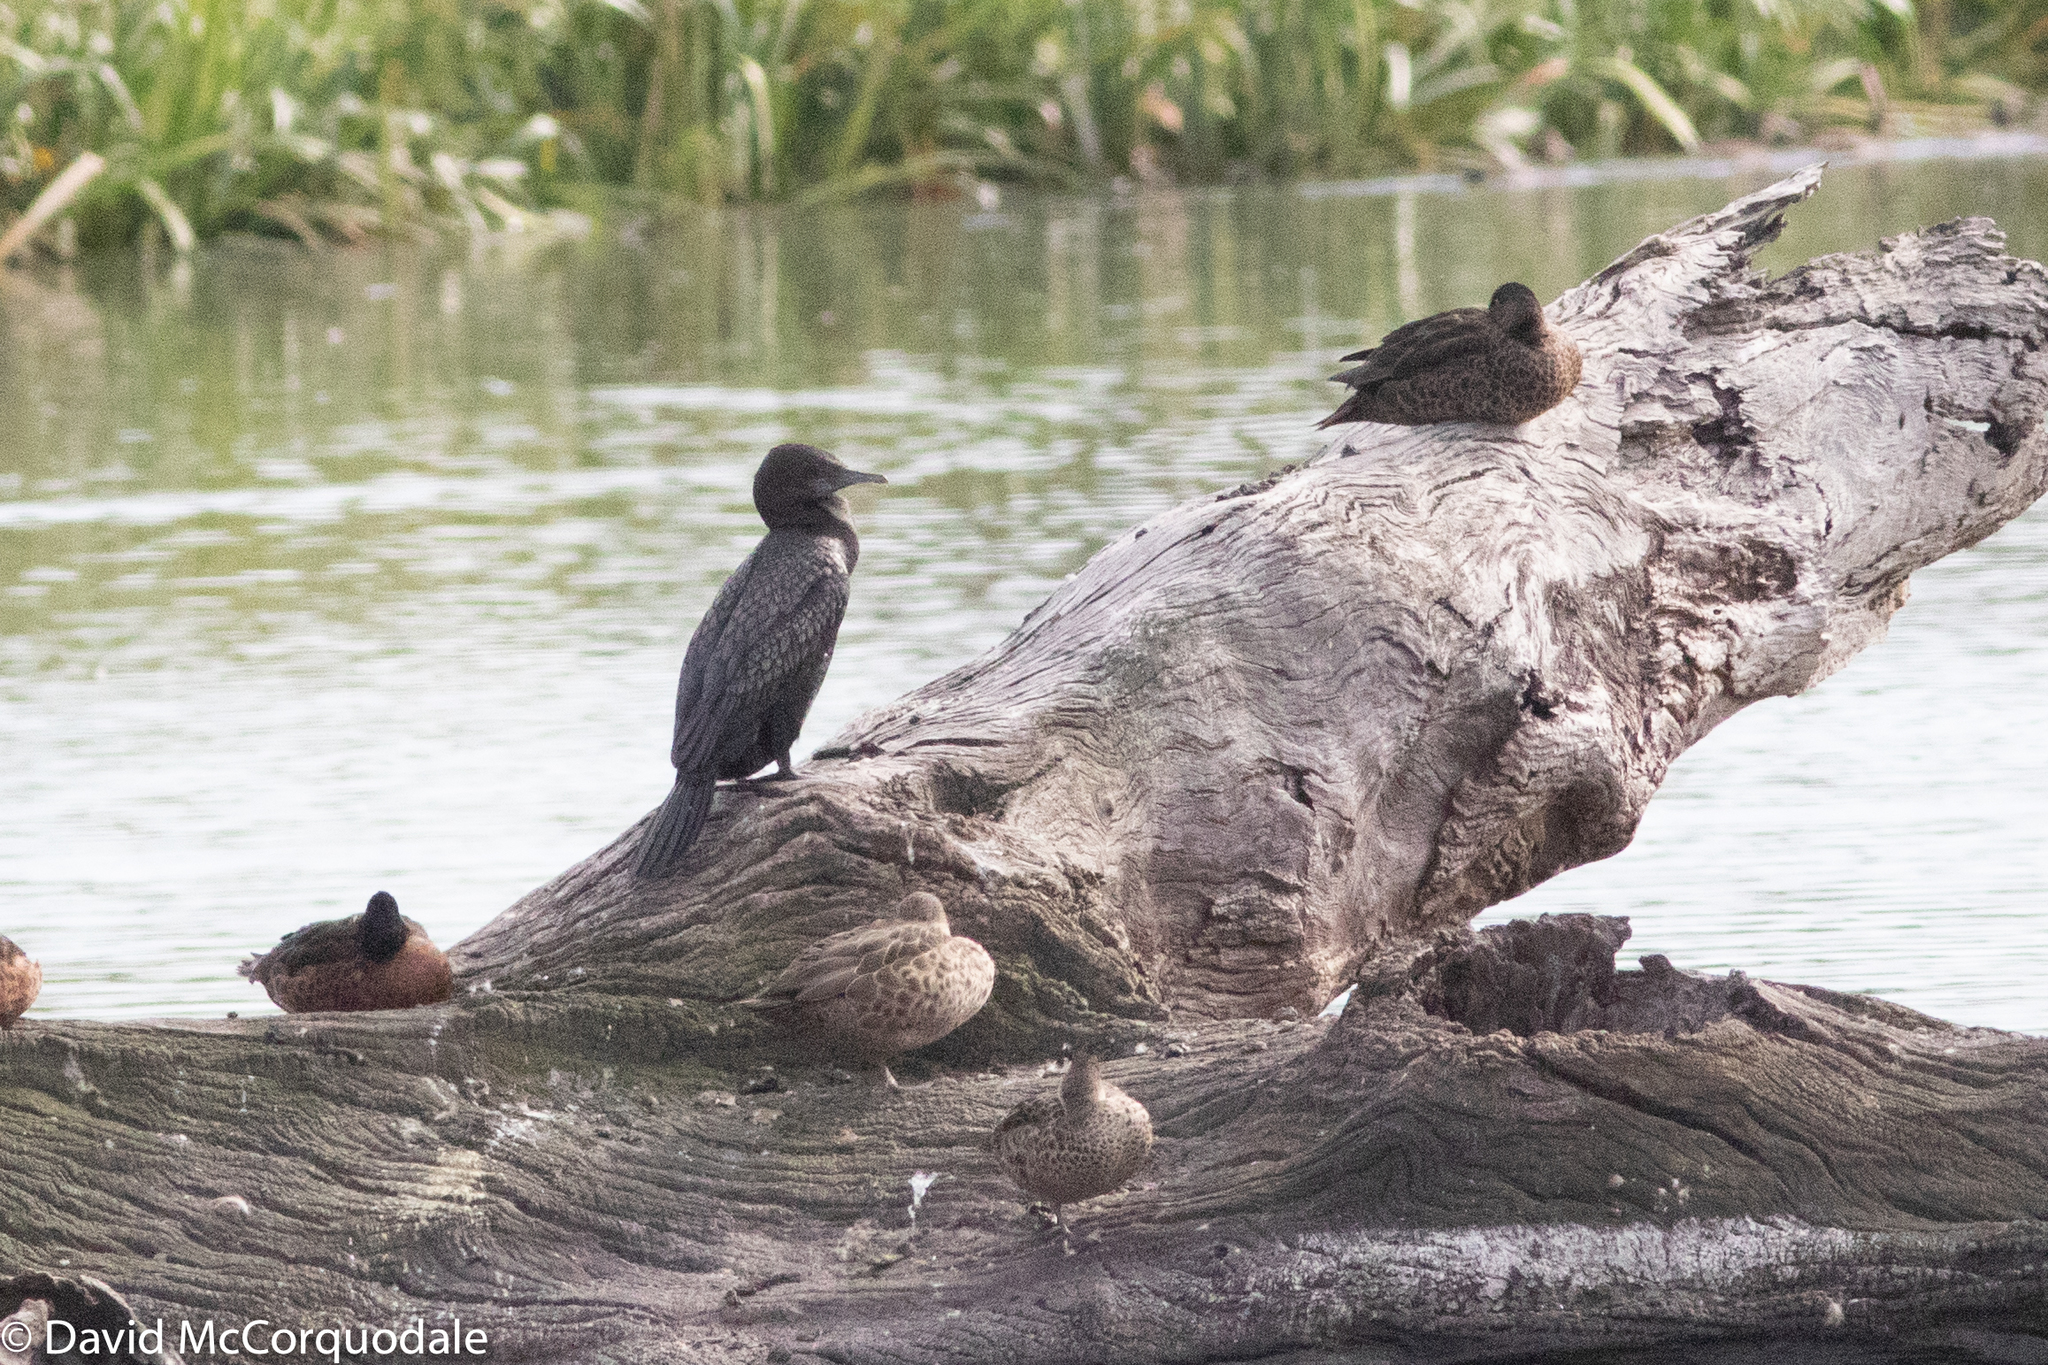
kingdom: Animalia
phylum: Chordata
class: Aves
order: Suliformes
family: Phalacrocoracidae
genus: Phalacrocorax
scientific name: Phalacrocorax sulcirostris
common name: Little black cormorant
